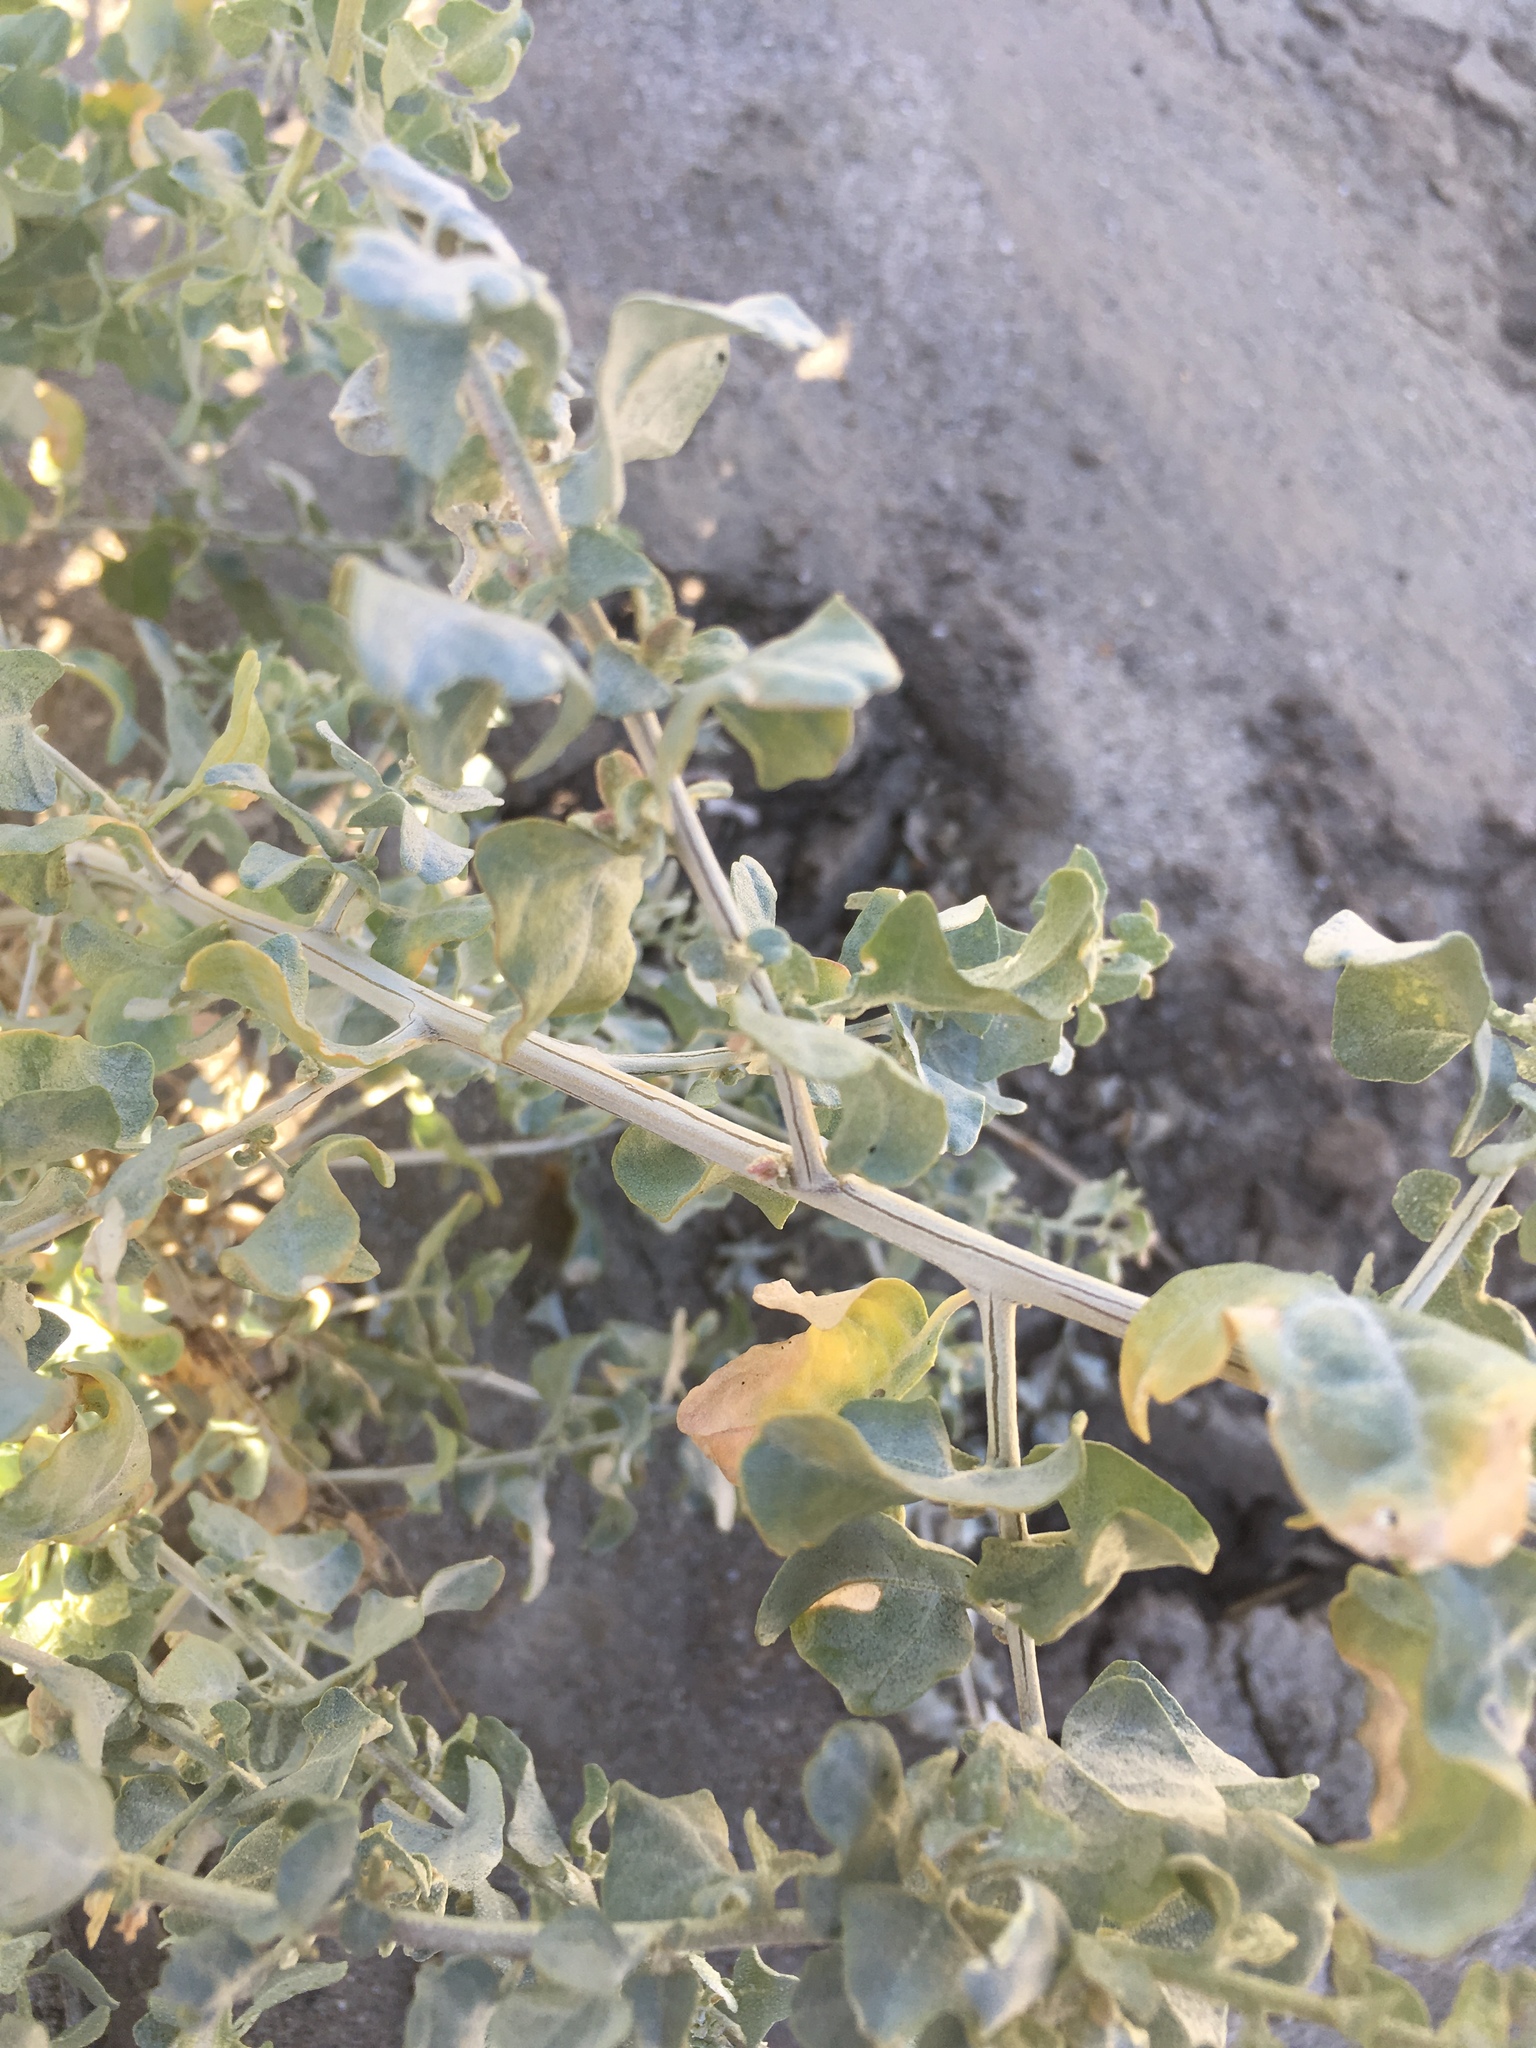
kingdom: Plantae
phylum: Tracheophyta
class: Magnoliopsida
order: Caryophyllales
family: Amaranthaceae
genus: Atriplex
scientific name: Atriplex lentiformis
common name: Big saltbush
